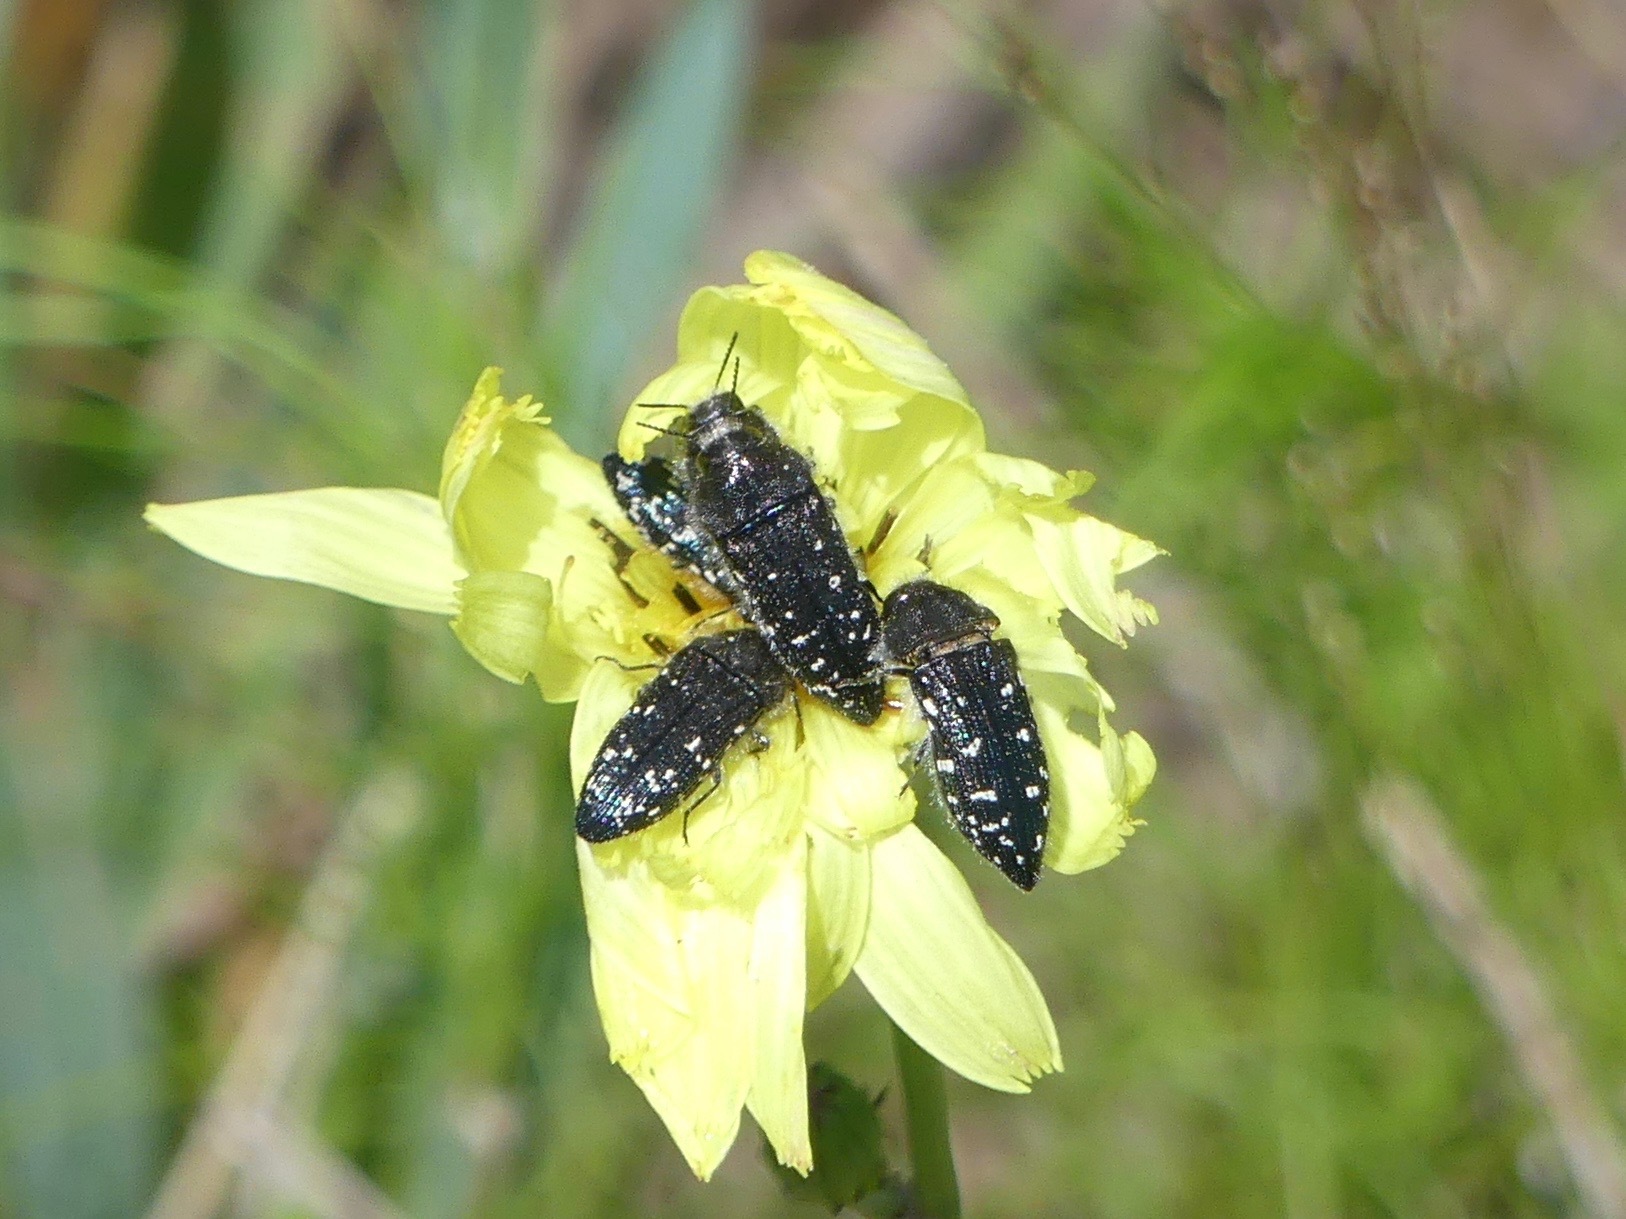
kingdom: Animalia
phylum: Arthropoda
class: Insecta
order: Coleoptera
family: Buprestidae
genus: Acmaeodera
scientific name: Acmaeodera ornatoides
